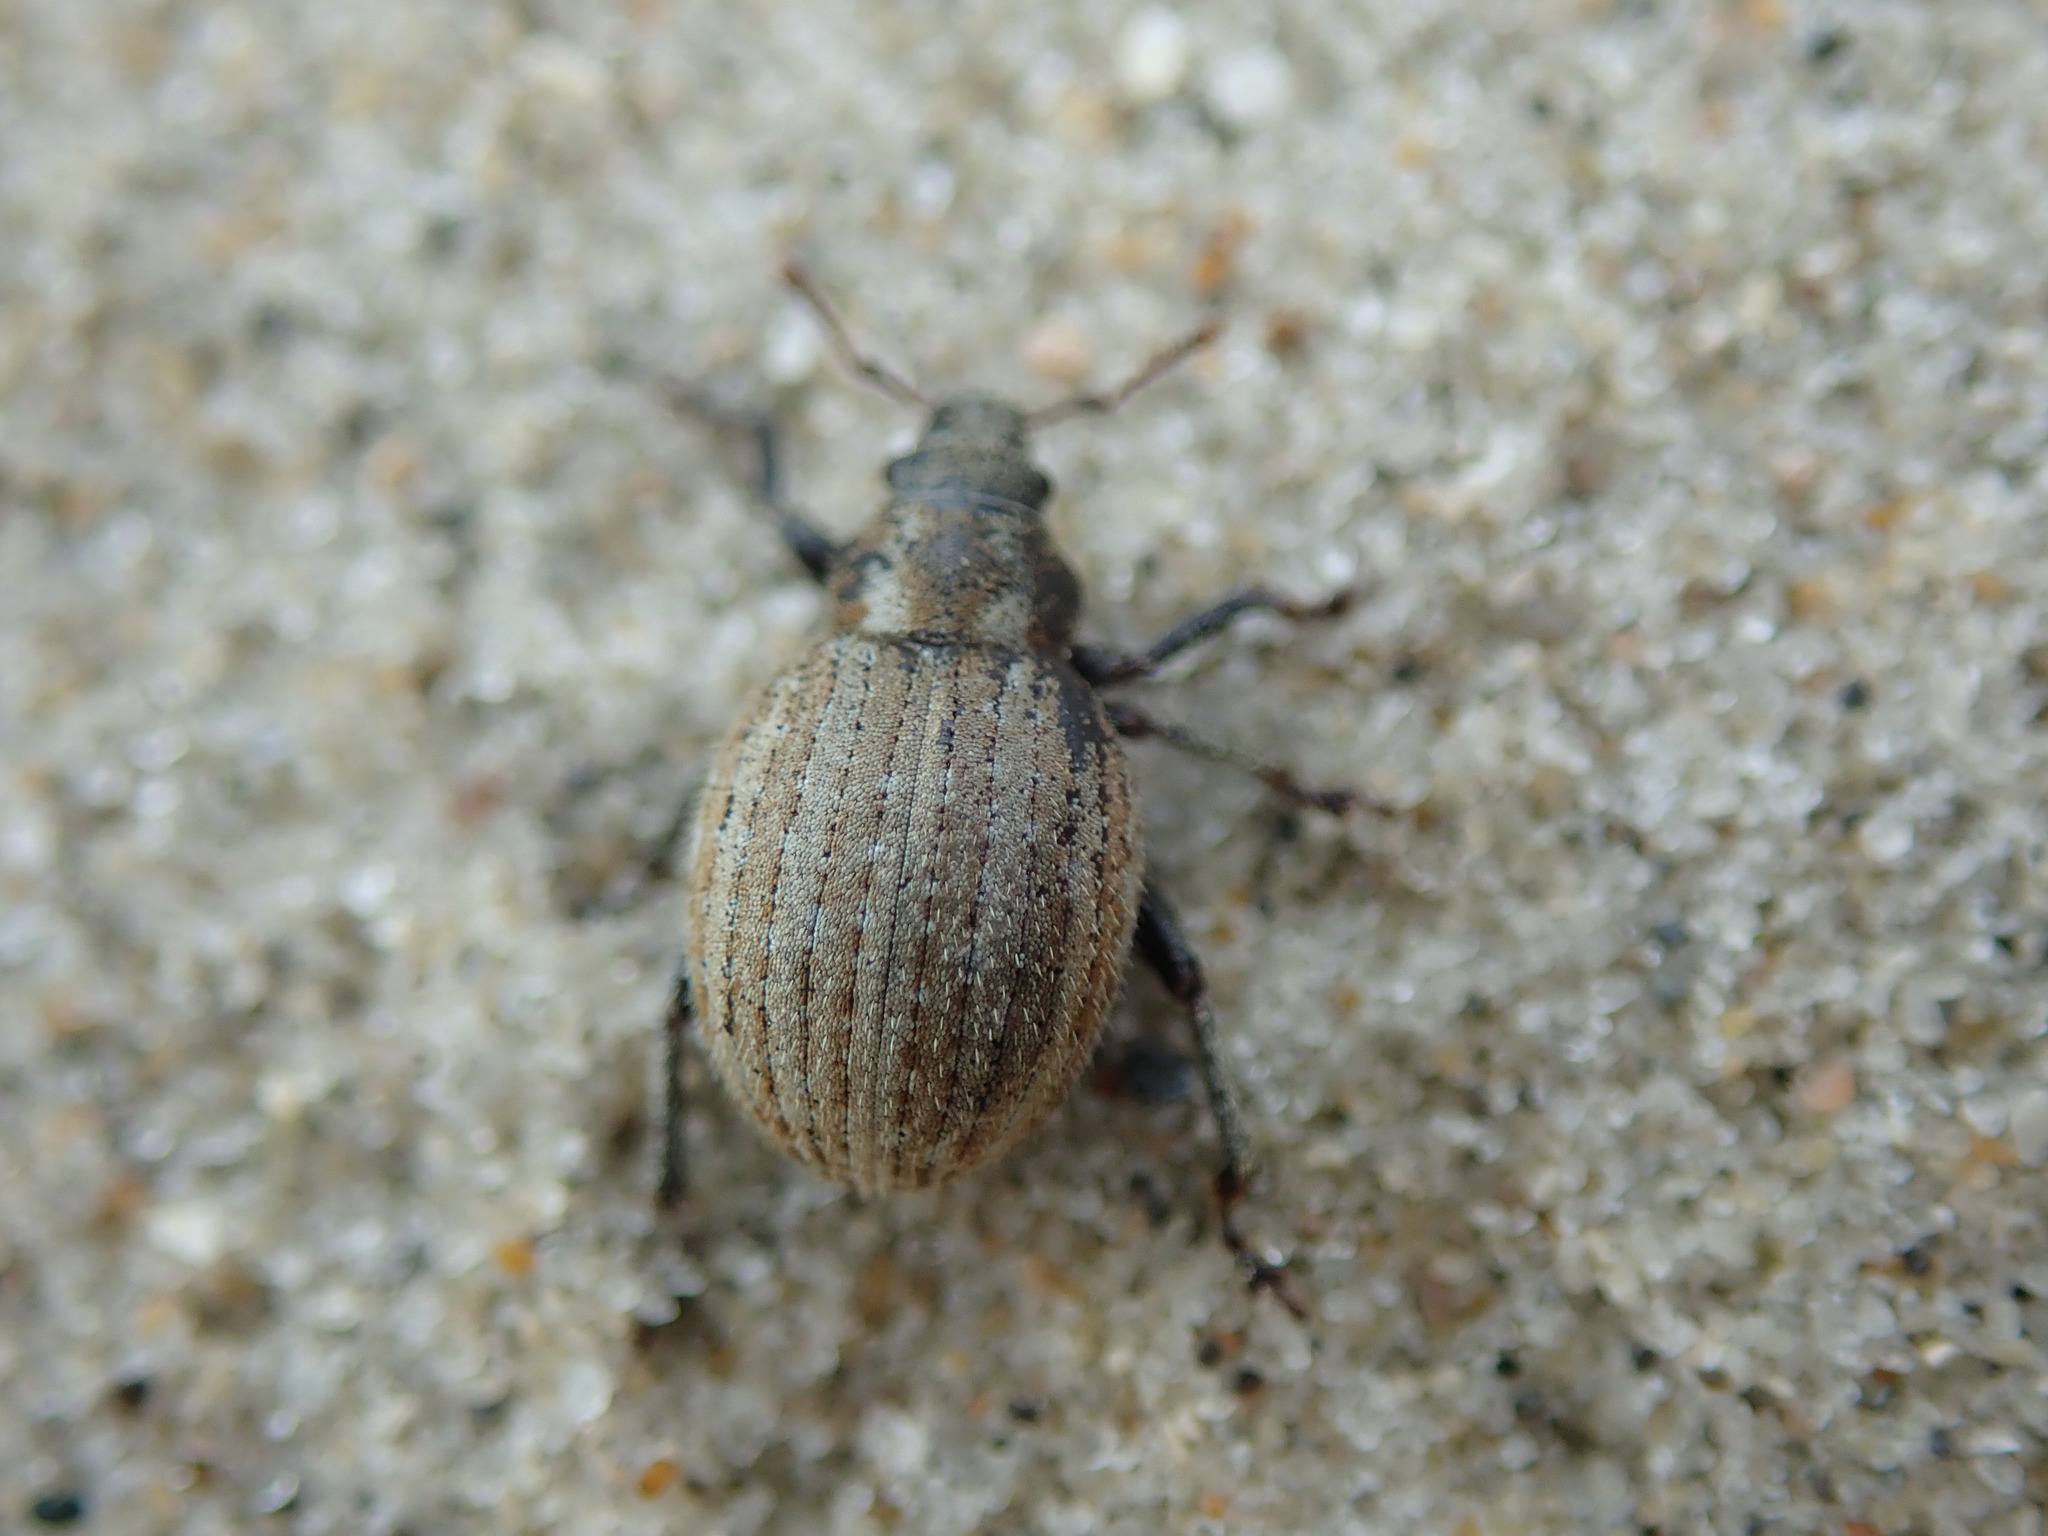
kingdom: Animalia
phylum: Arthropoda
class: Insecta
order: Coleoptera
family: Curculionidae
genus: Philopedon
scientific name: Philopedon plagiatum
